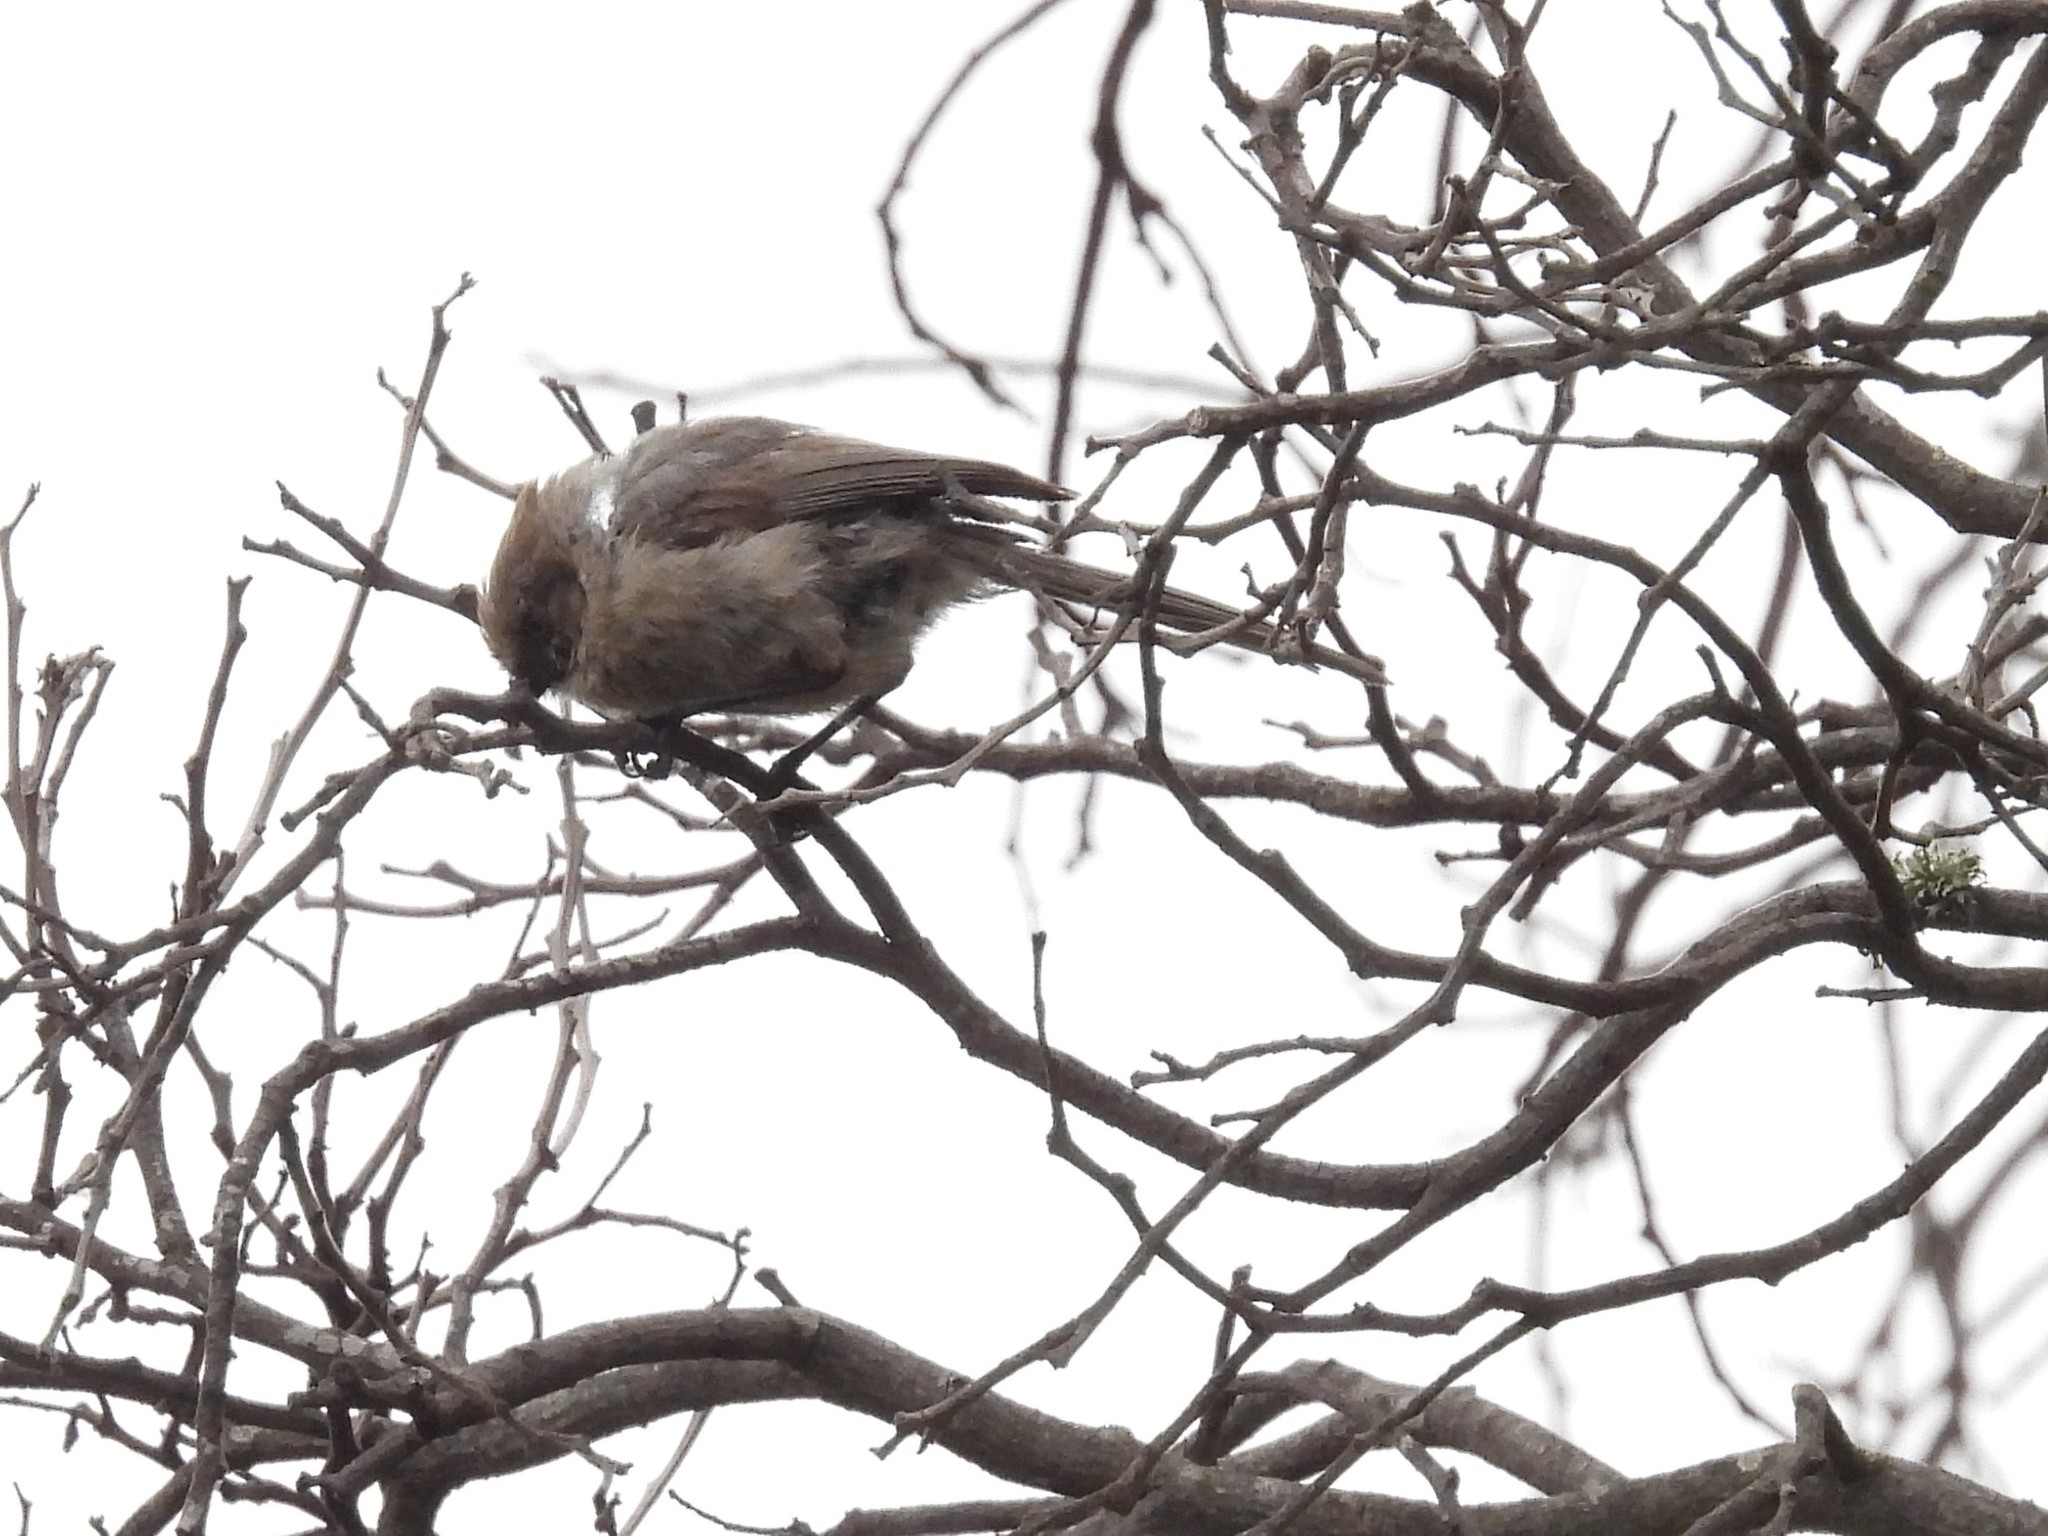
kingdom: Animalia
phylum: Chordata
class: Aves
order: Passeriformes
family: Aegithalidae
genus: Psaltriparus
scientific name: Psaltriparus minimus
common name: American bushtit
